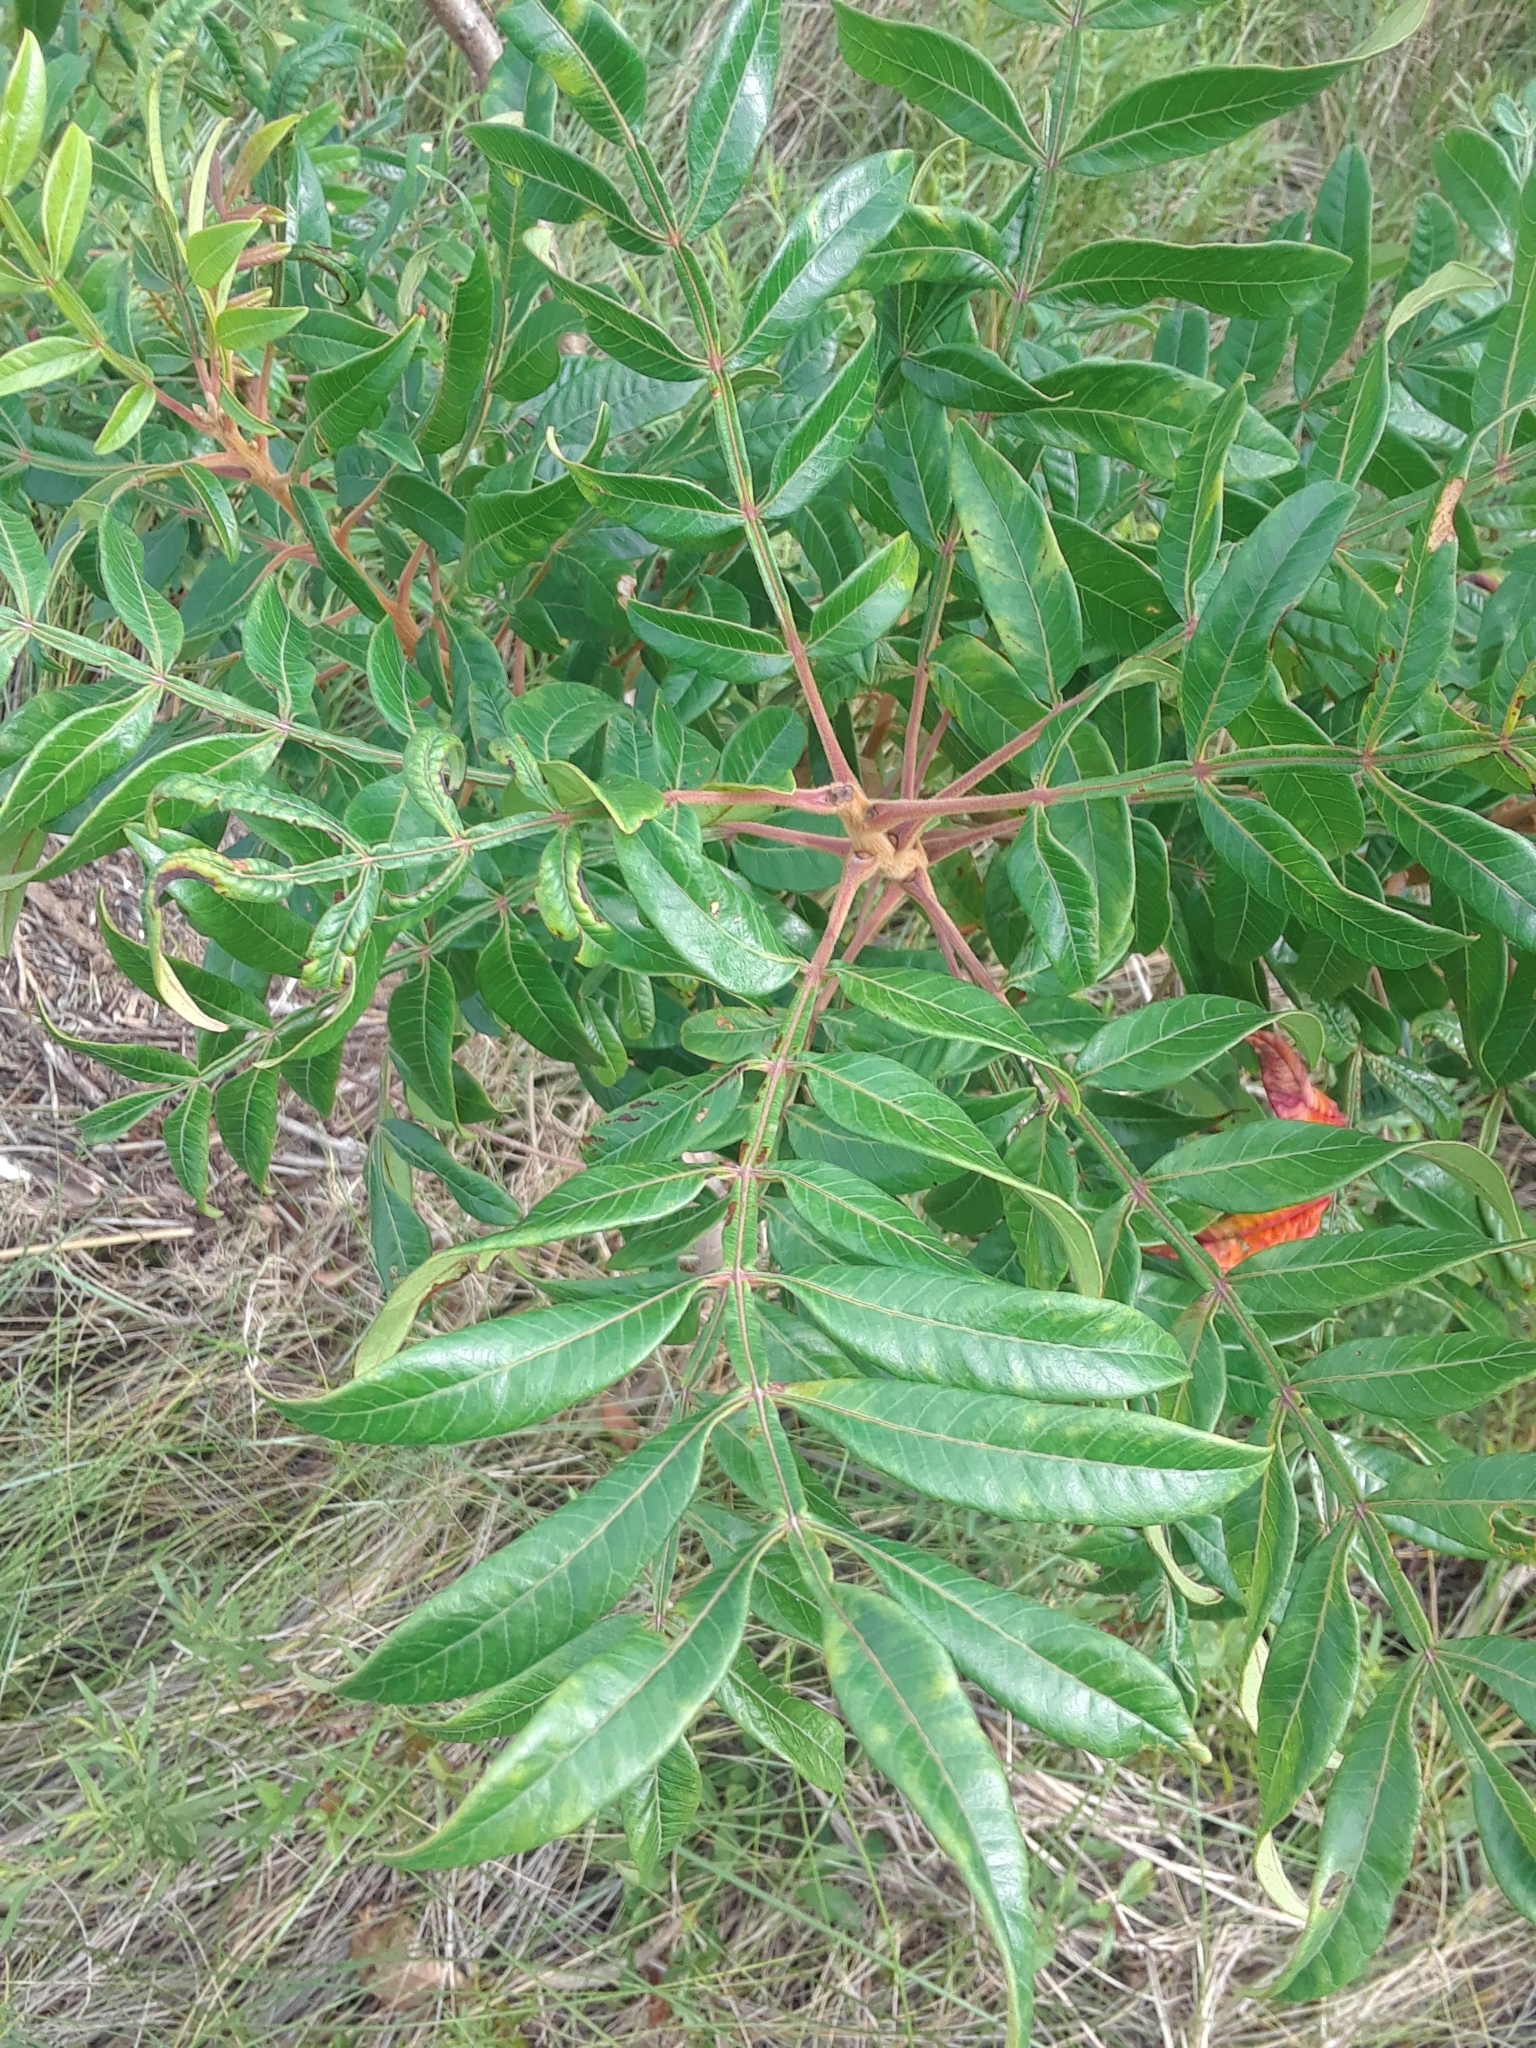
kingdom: Plantae
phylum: Tracheophyta
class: Magnoliopsida
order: Sapindales
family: Anacardiaceae
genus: Rhus
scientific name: Rhus copallina
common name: Shining sumac
